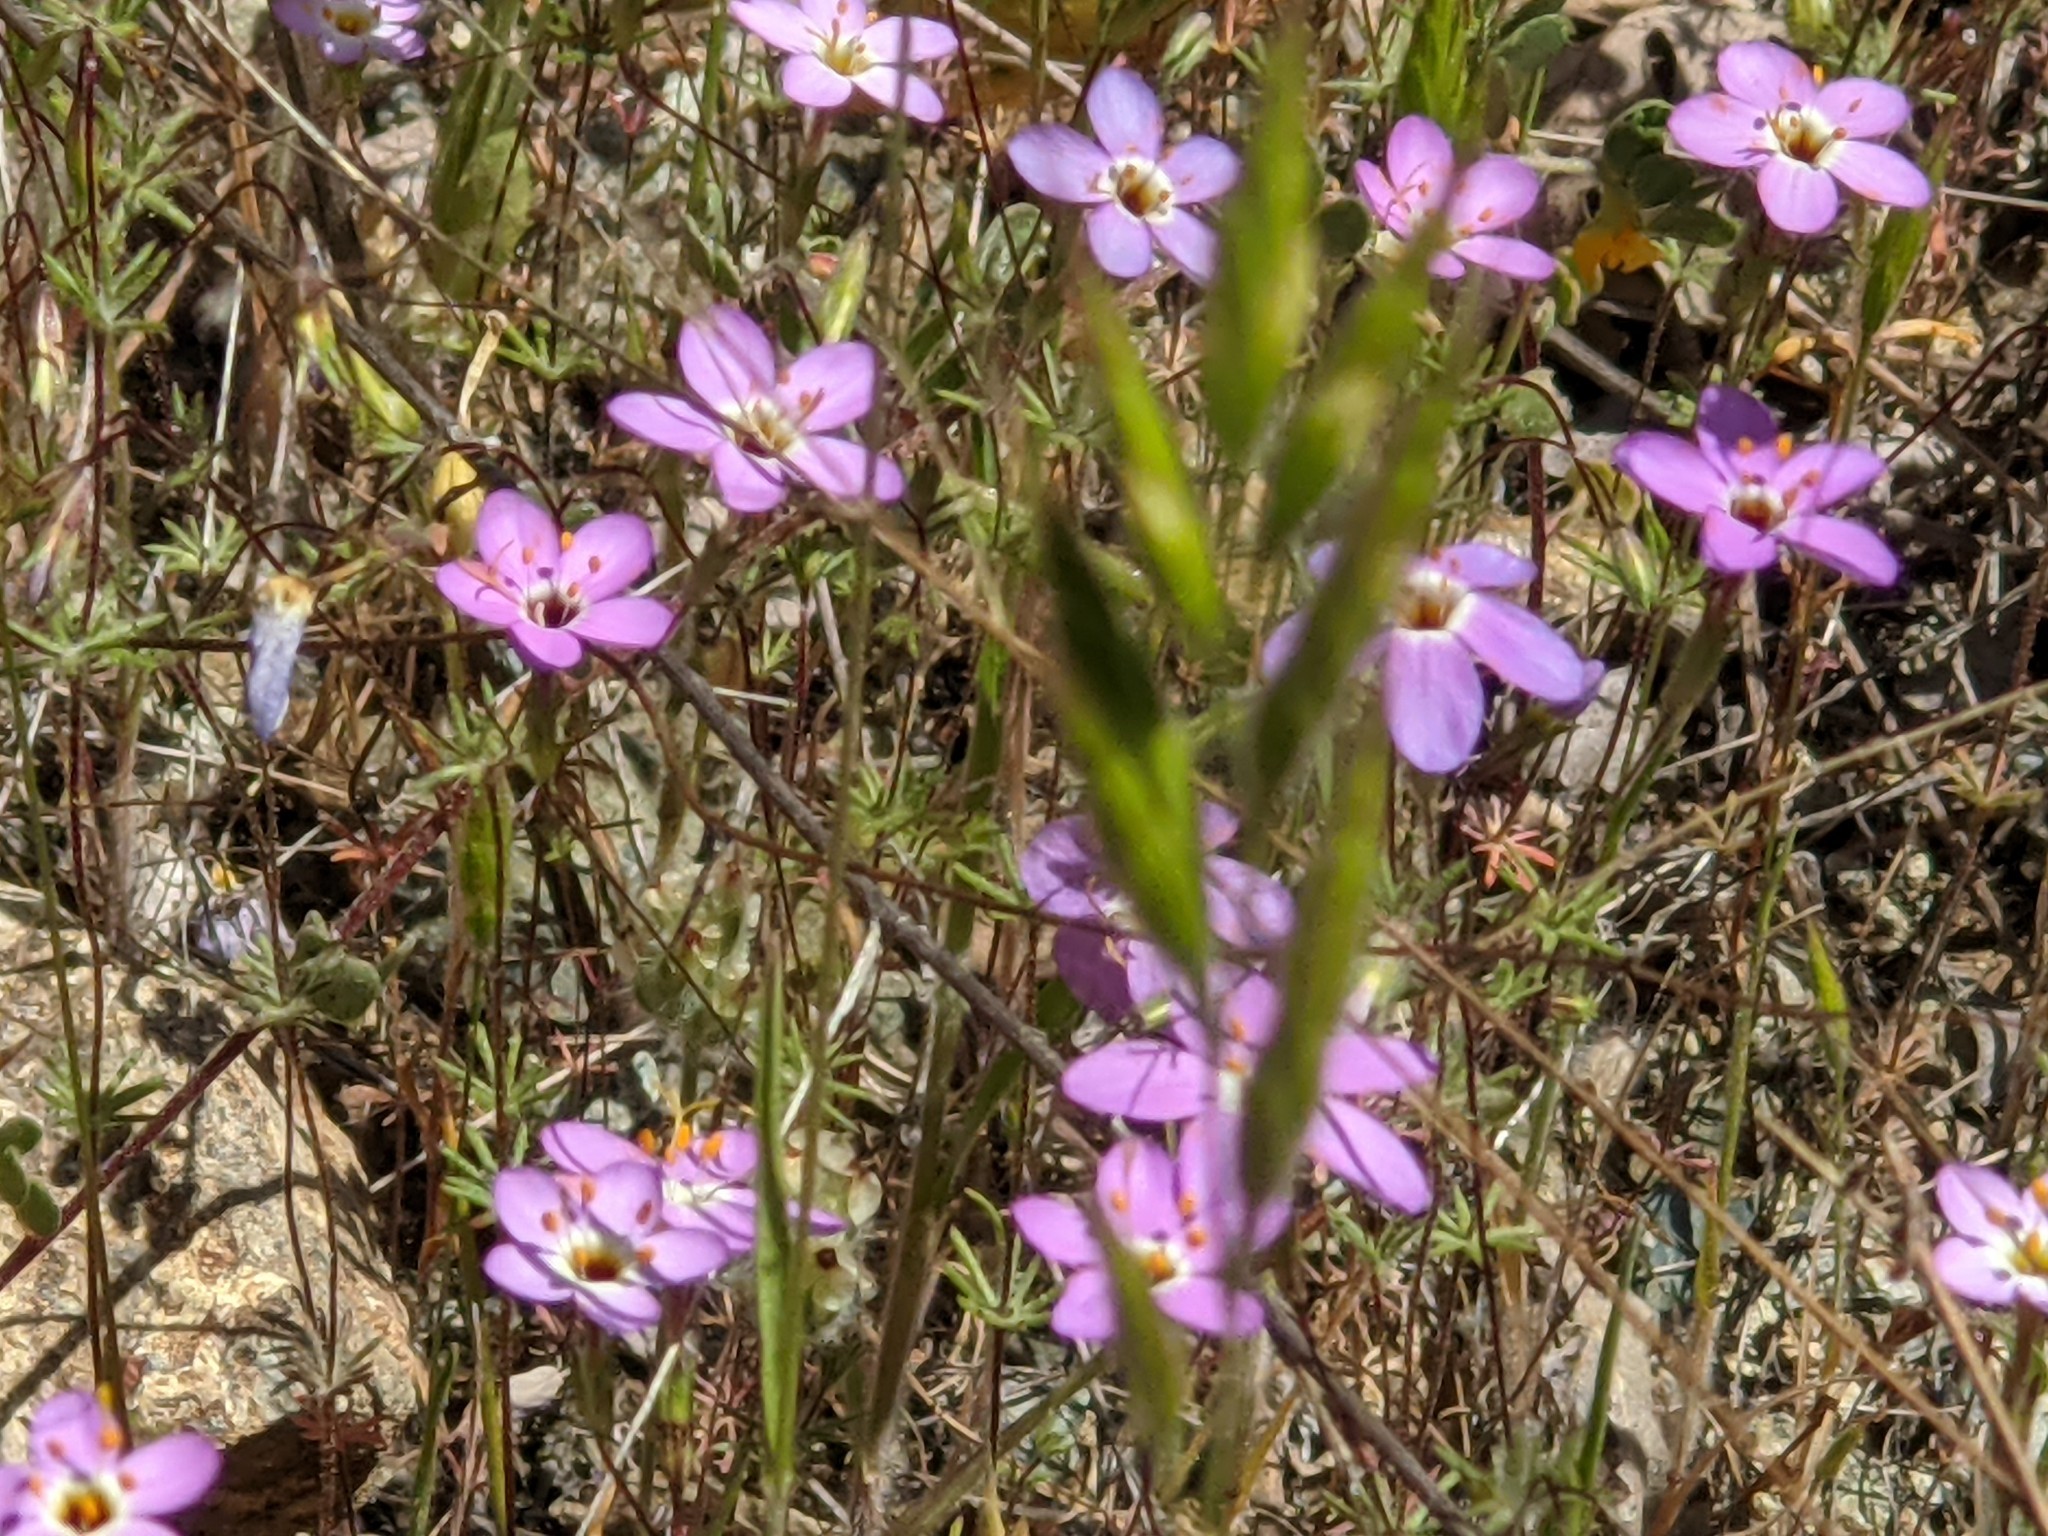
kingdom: Plantae
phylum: Tracheophyta
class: Magnoliopsida
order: Ericales
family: Polemoniaceae
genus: Leptosiphon
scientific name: Leptosiphon ambiguus
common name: Serpentine linanthus
